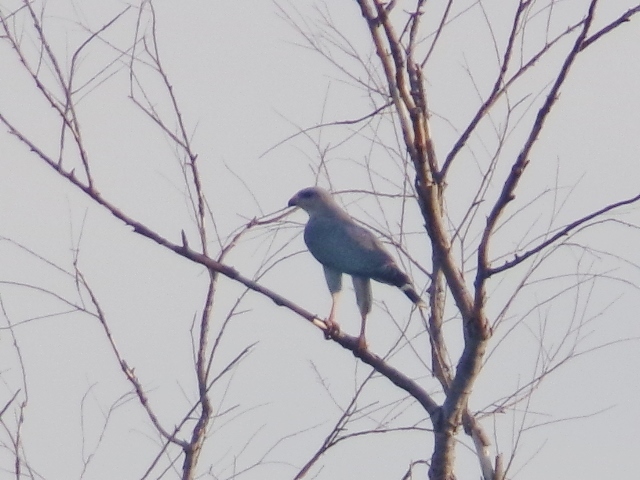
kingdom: Animalia
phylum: Chordata
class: Aves
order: Accipitriformes
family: Accipitridae
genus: Buteo
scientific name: Buteo nitidus
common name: Grey-lined hawk
